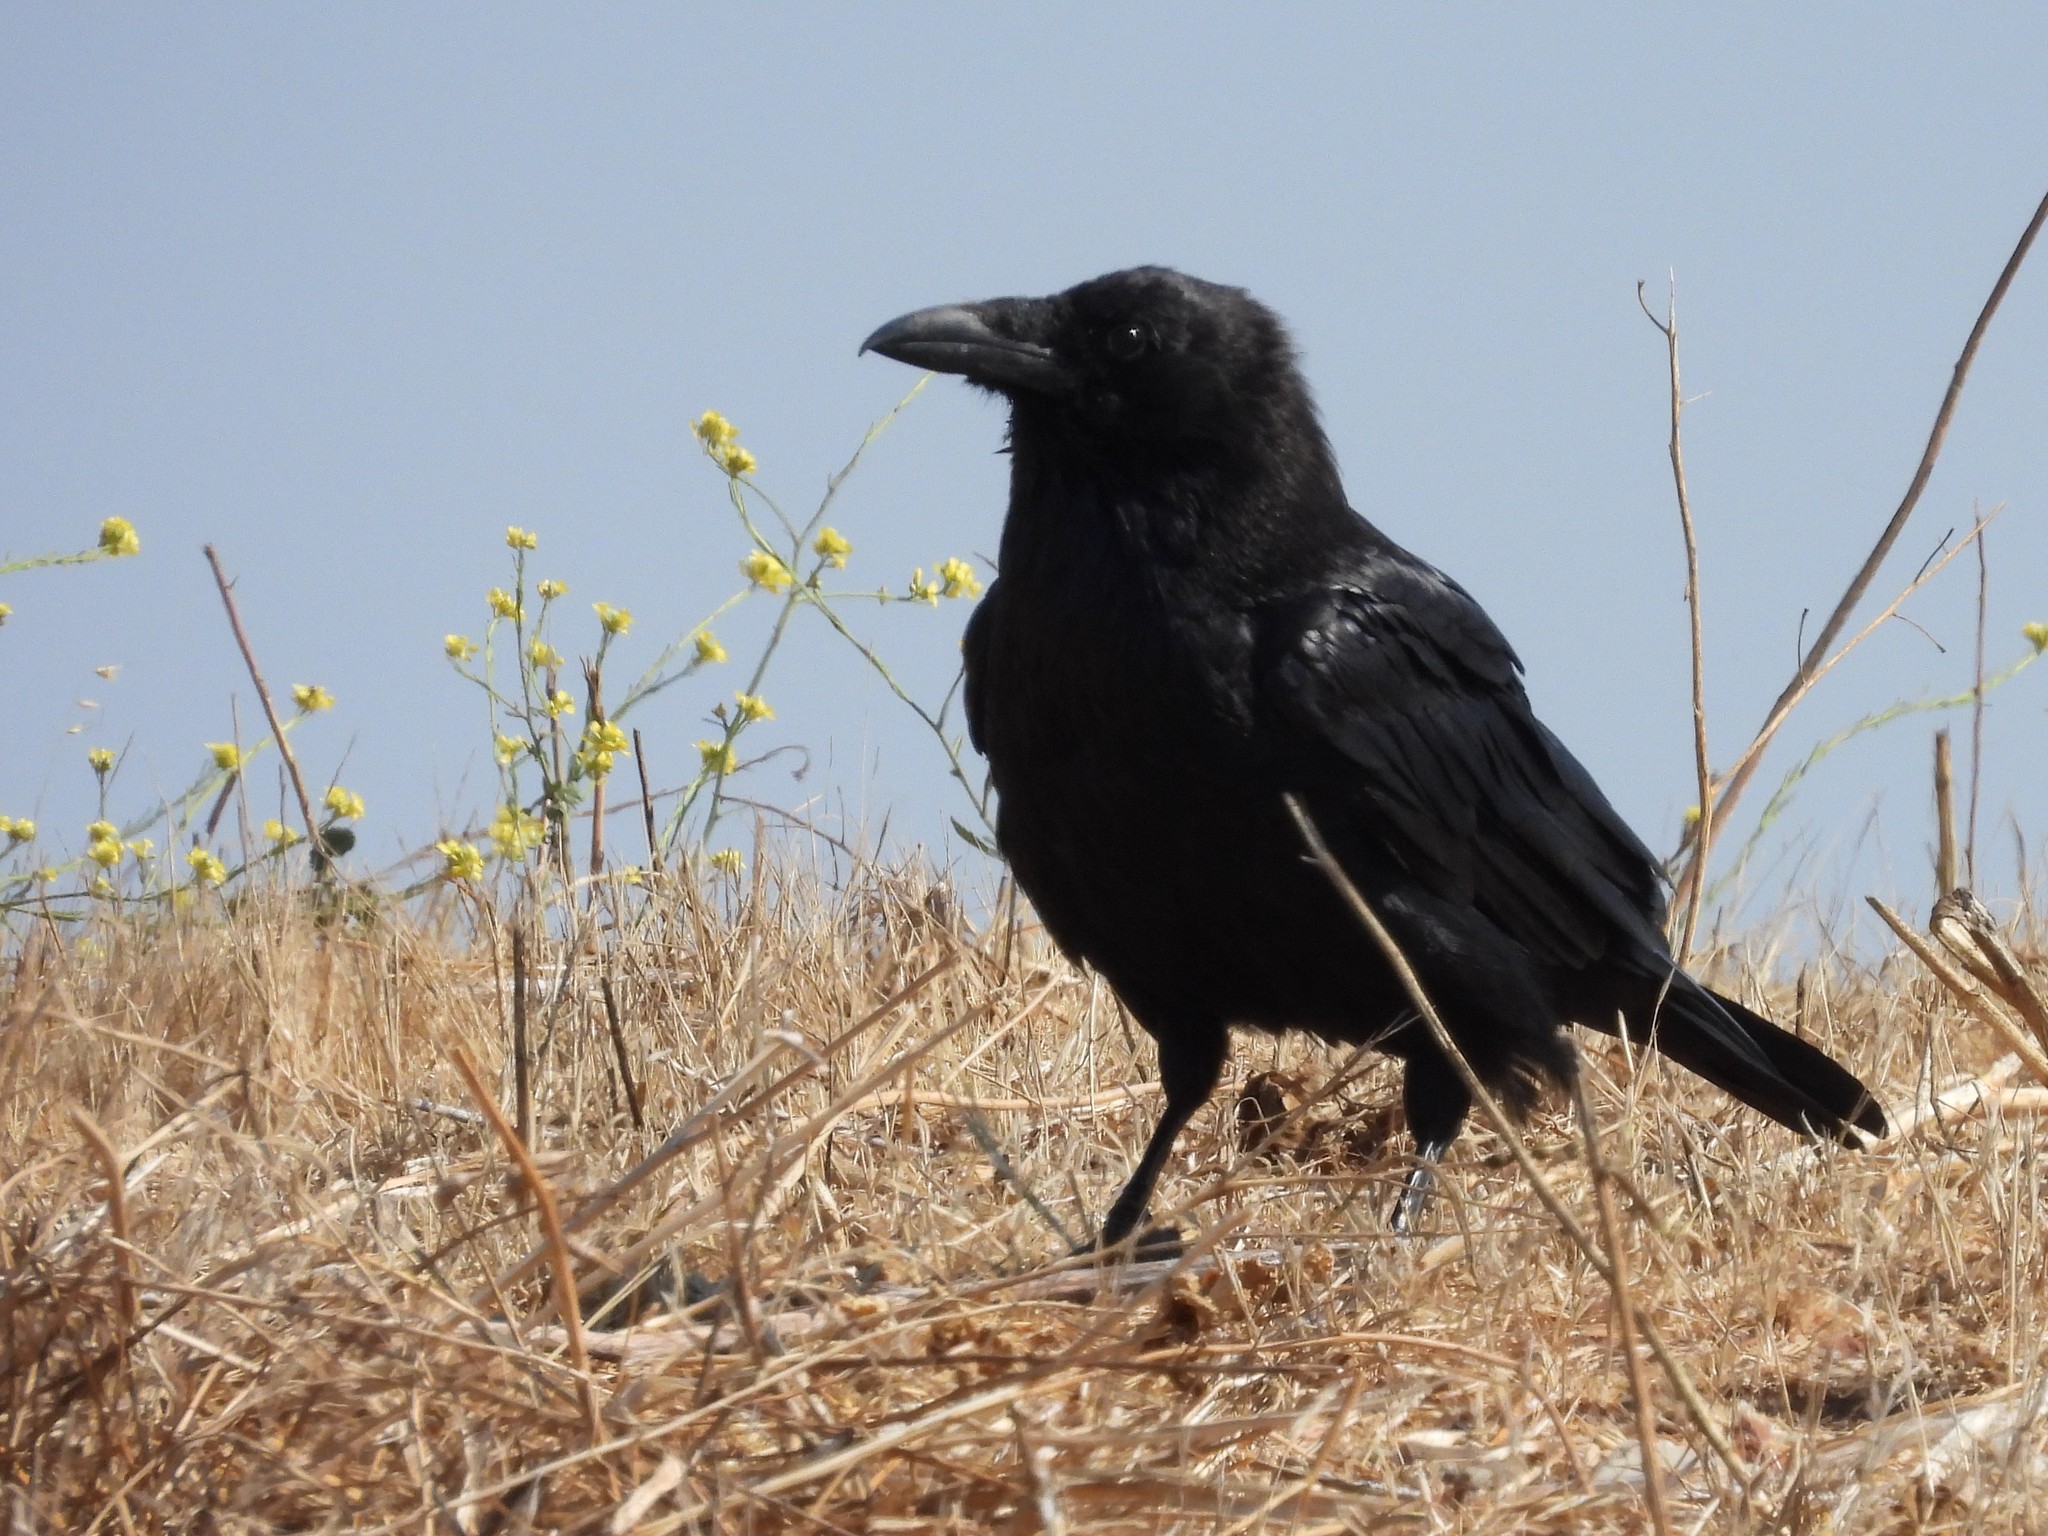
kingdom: Animalia
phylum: Chordata
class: Aves
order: Passeriformes
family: Corvidae
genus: Corvus
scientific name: Corvus corax
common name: Common raven
